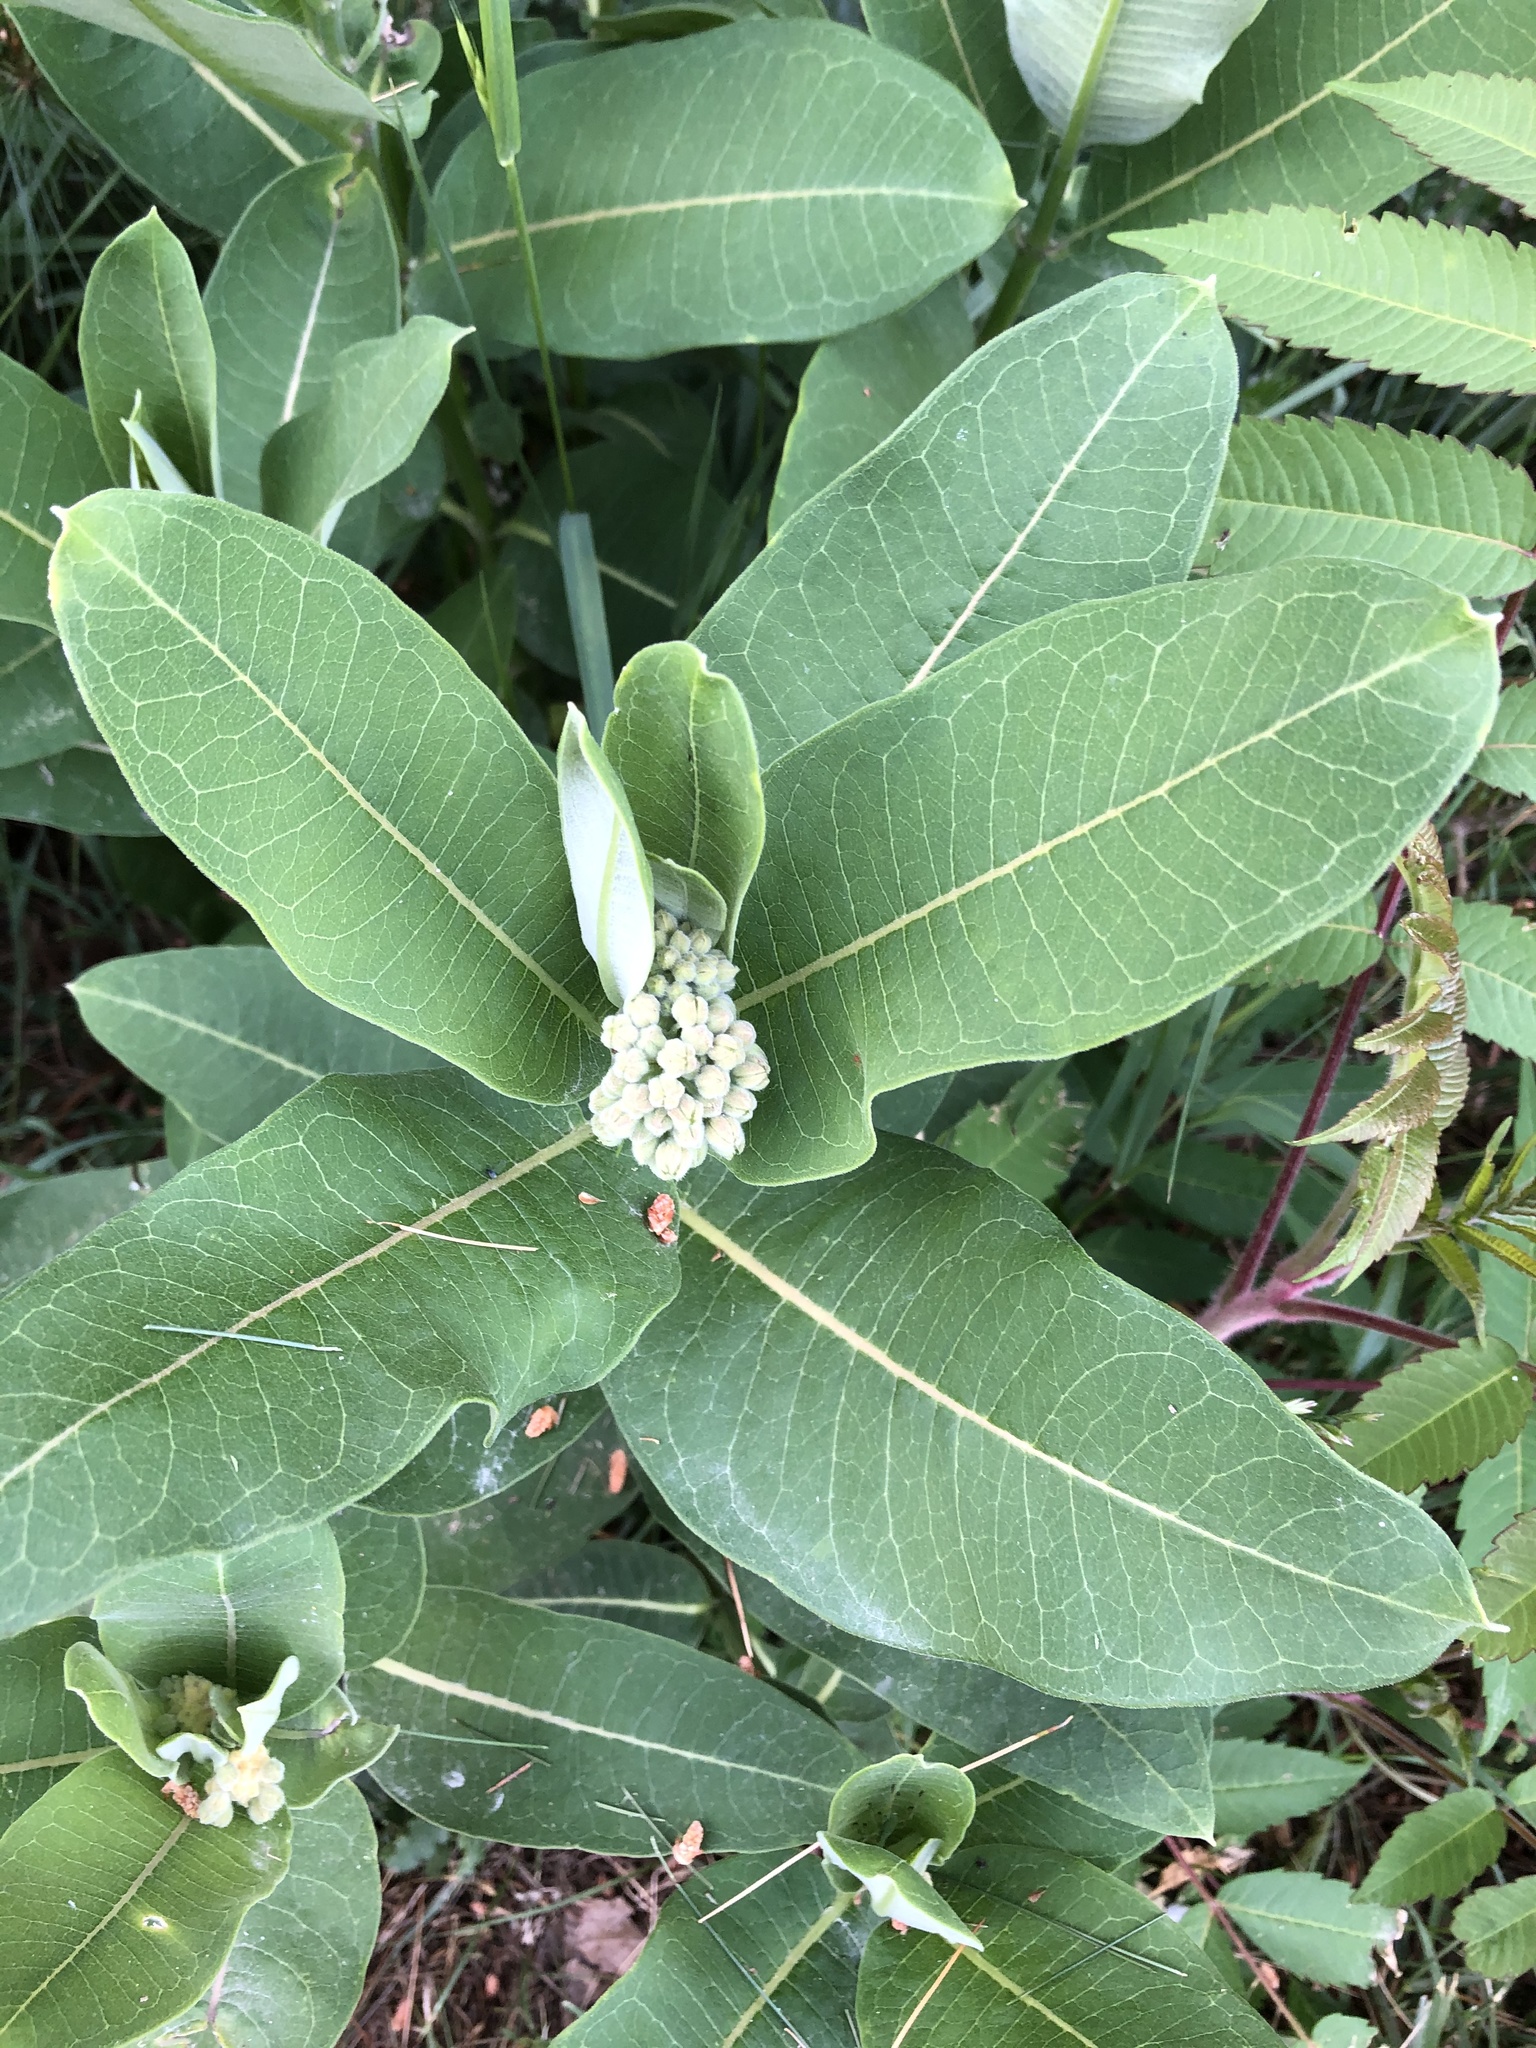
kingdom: Plantae
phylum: Tracheophyta
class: Magnoliopsida
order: Gentianales
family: Apocynaceae
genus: Asclepias
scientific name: Asclepias syriaca
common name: Common milkweed
